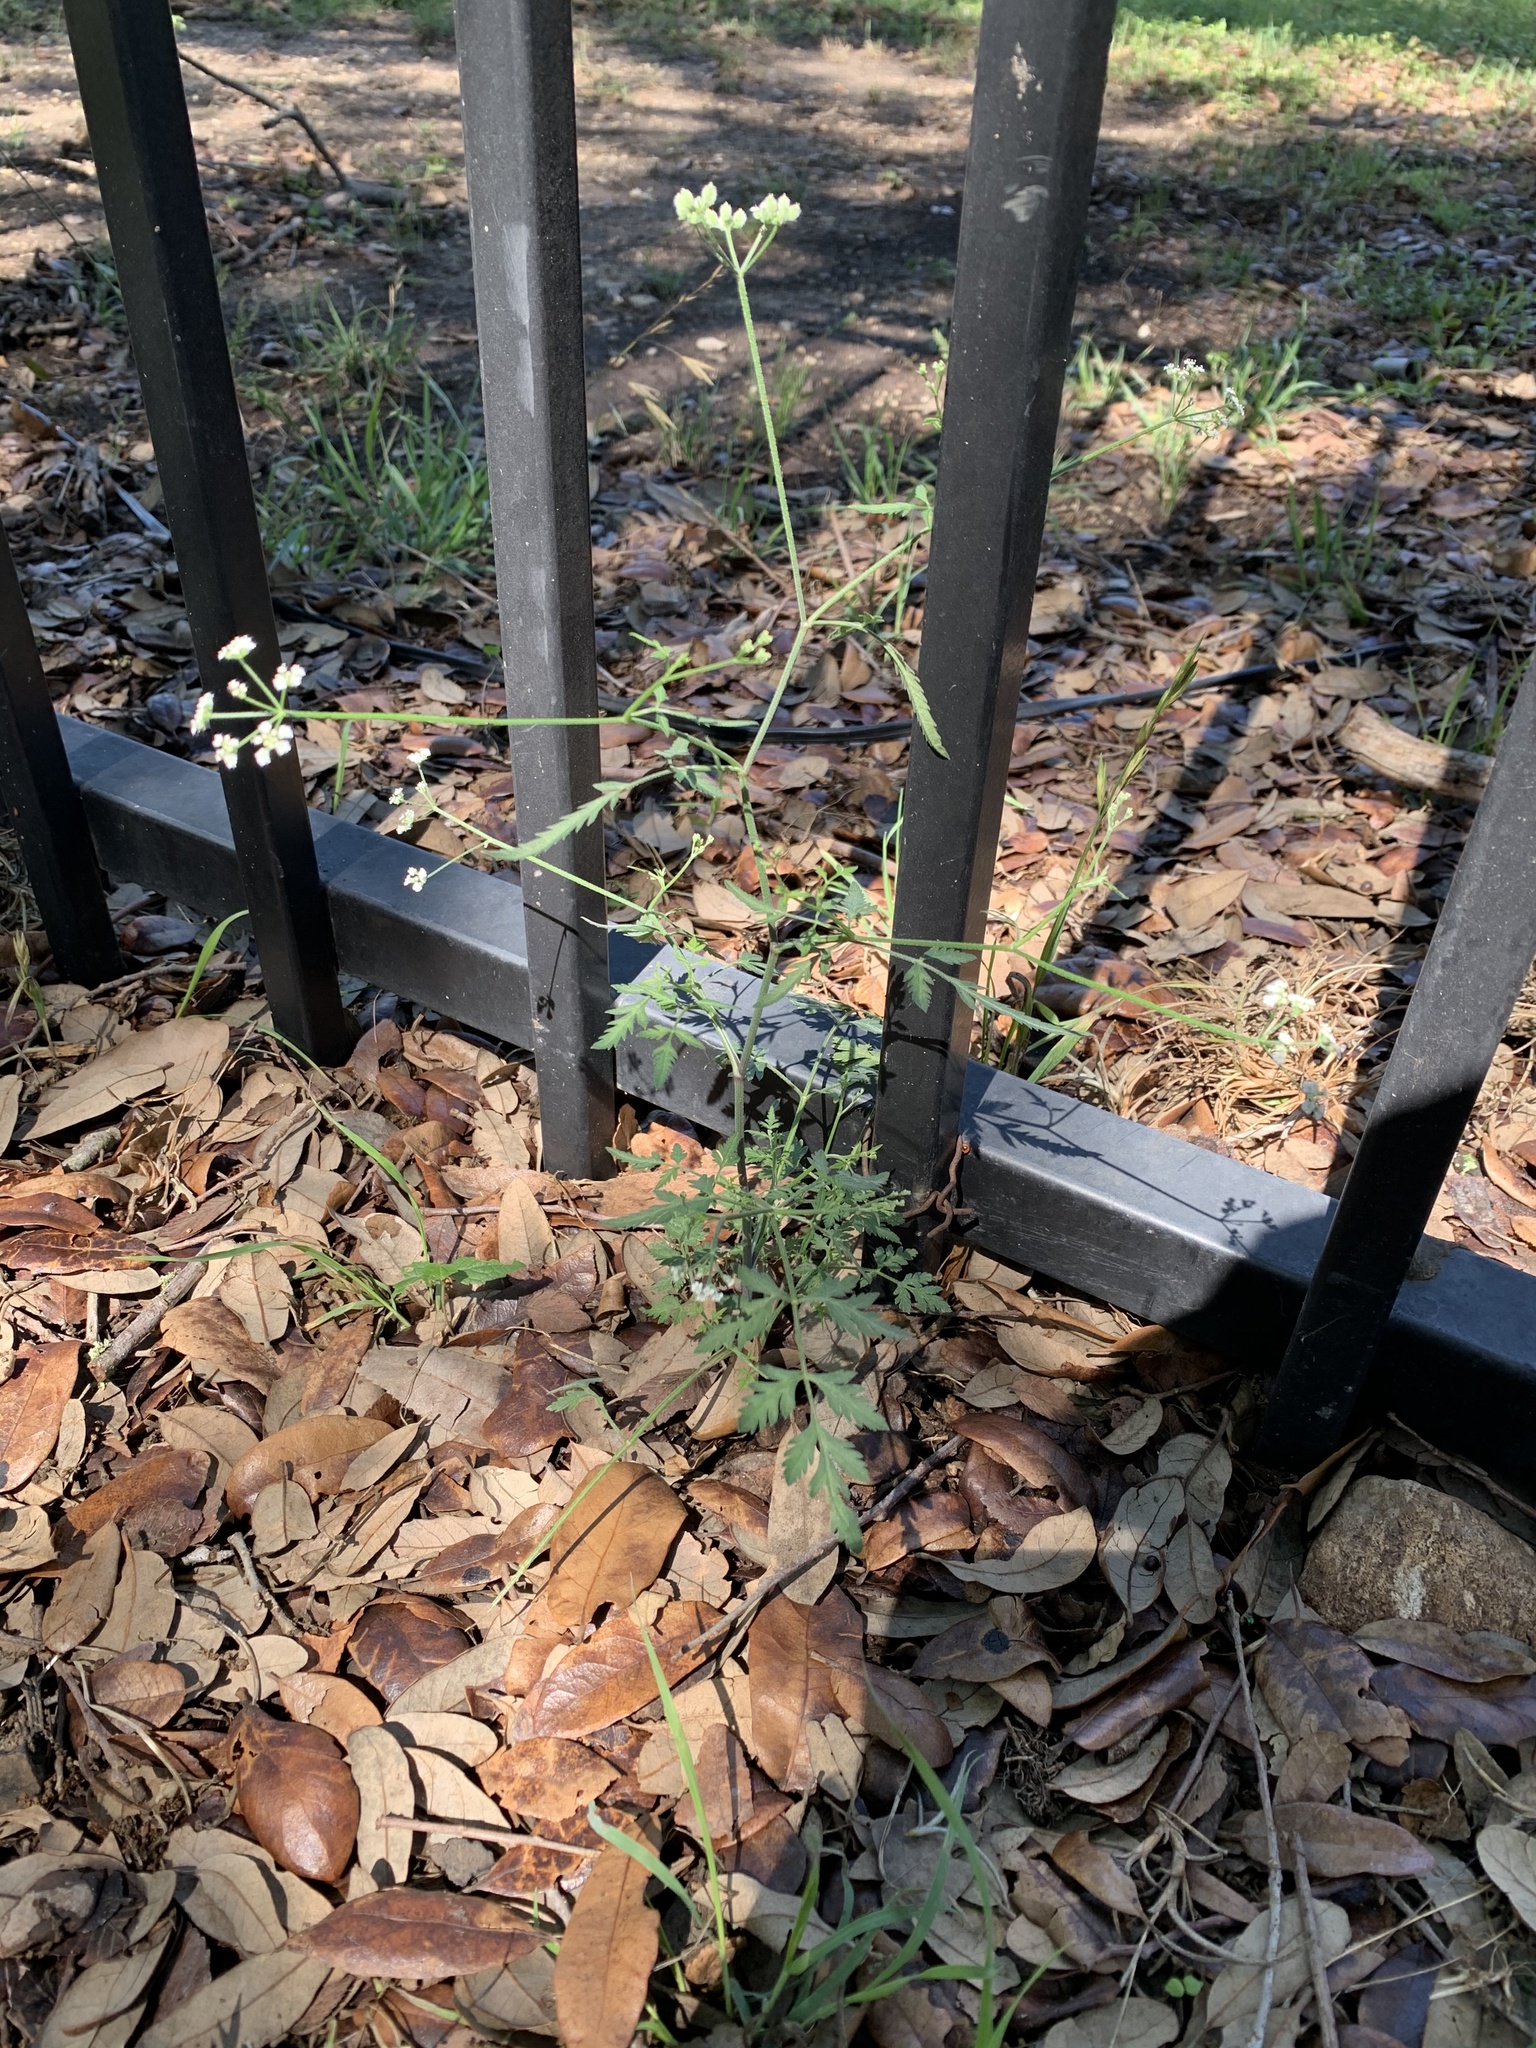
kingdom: Plantae
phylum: Tracheophyta
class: Magnoliopsida
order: Apiales
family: Apiaceae
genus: Torilis
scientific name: Torilis arvensis
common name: Spreading hedge-parsley
